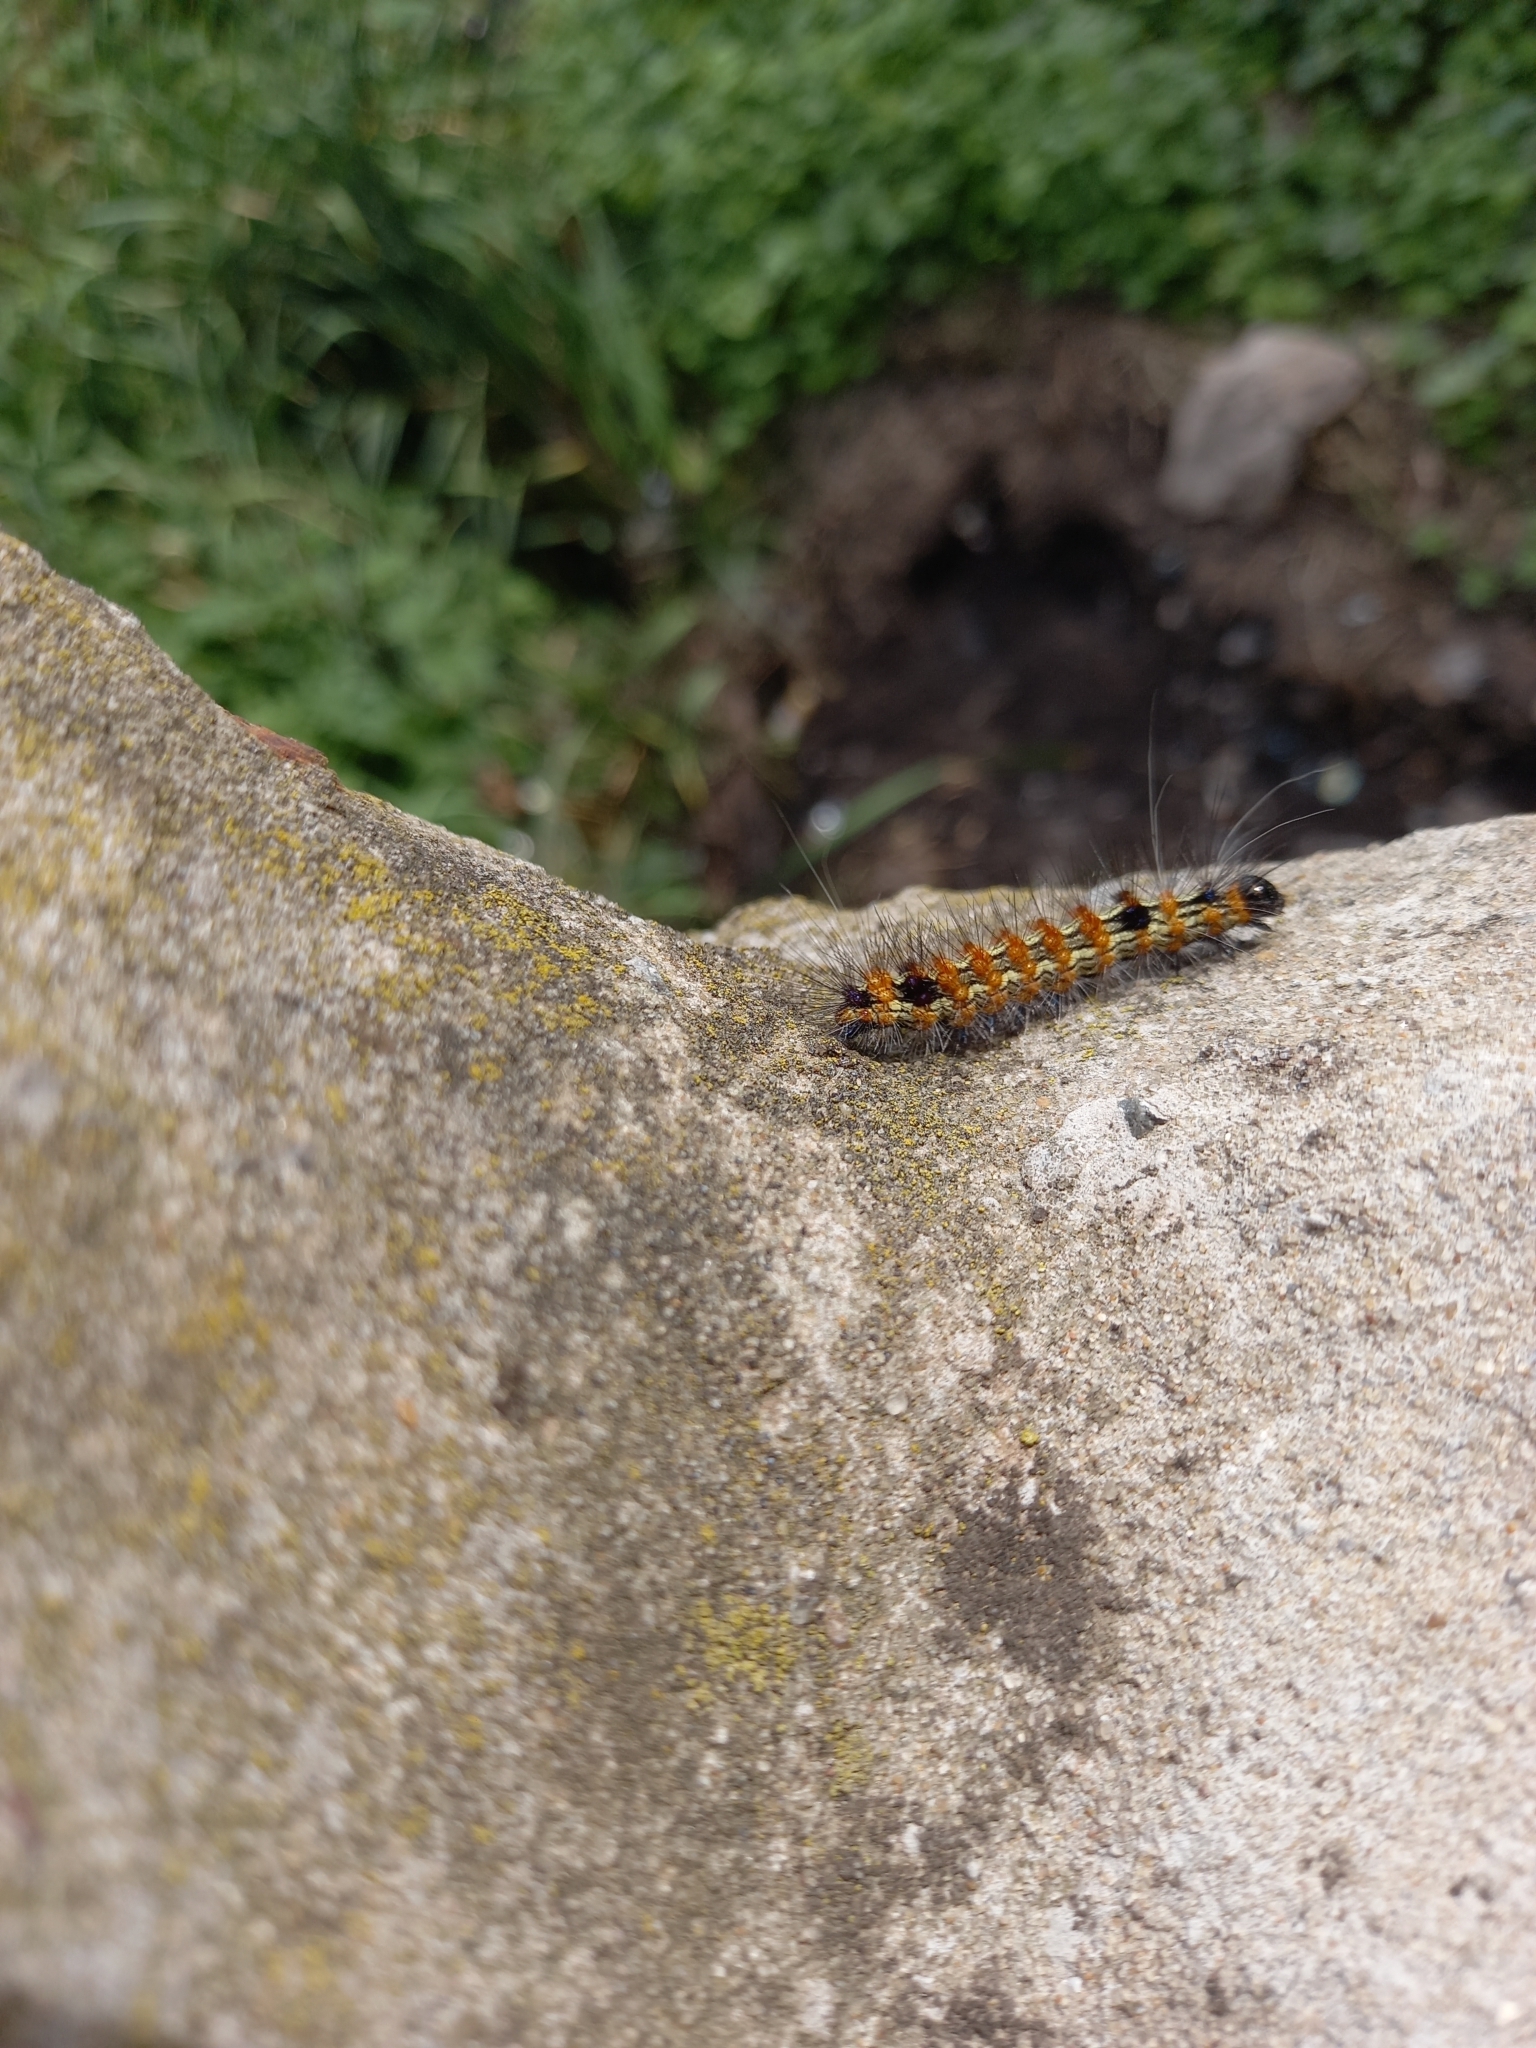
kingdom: Animalia
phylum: Arthropoda
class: Insecta
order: Lepidoptera
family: Erebidae
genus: Dysschema
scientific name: Dysschema sacrifica
